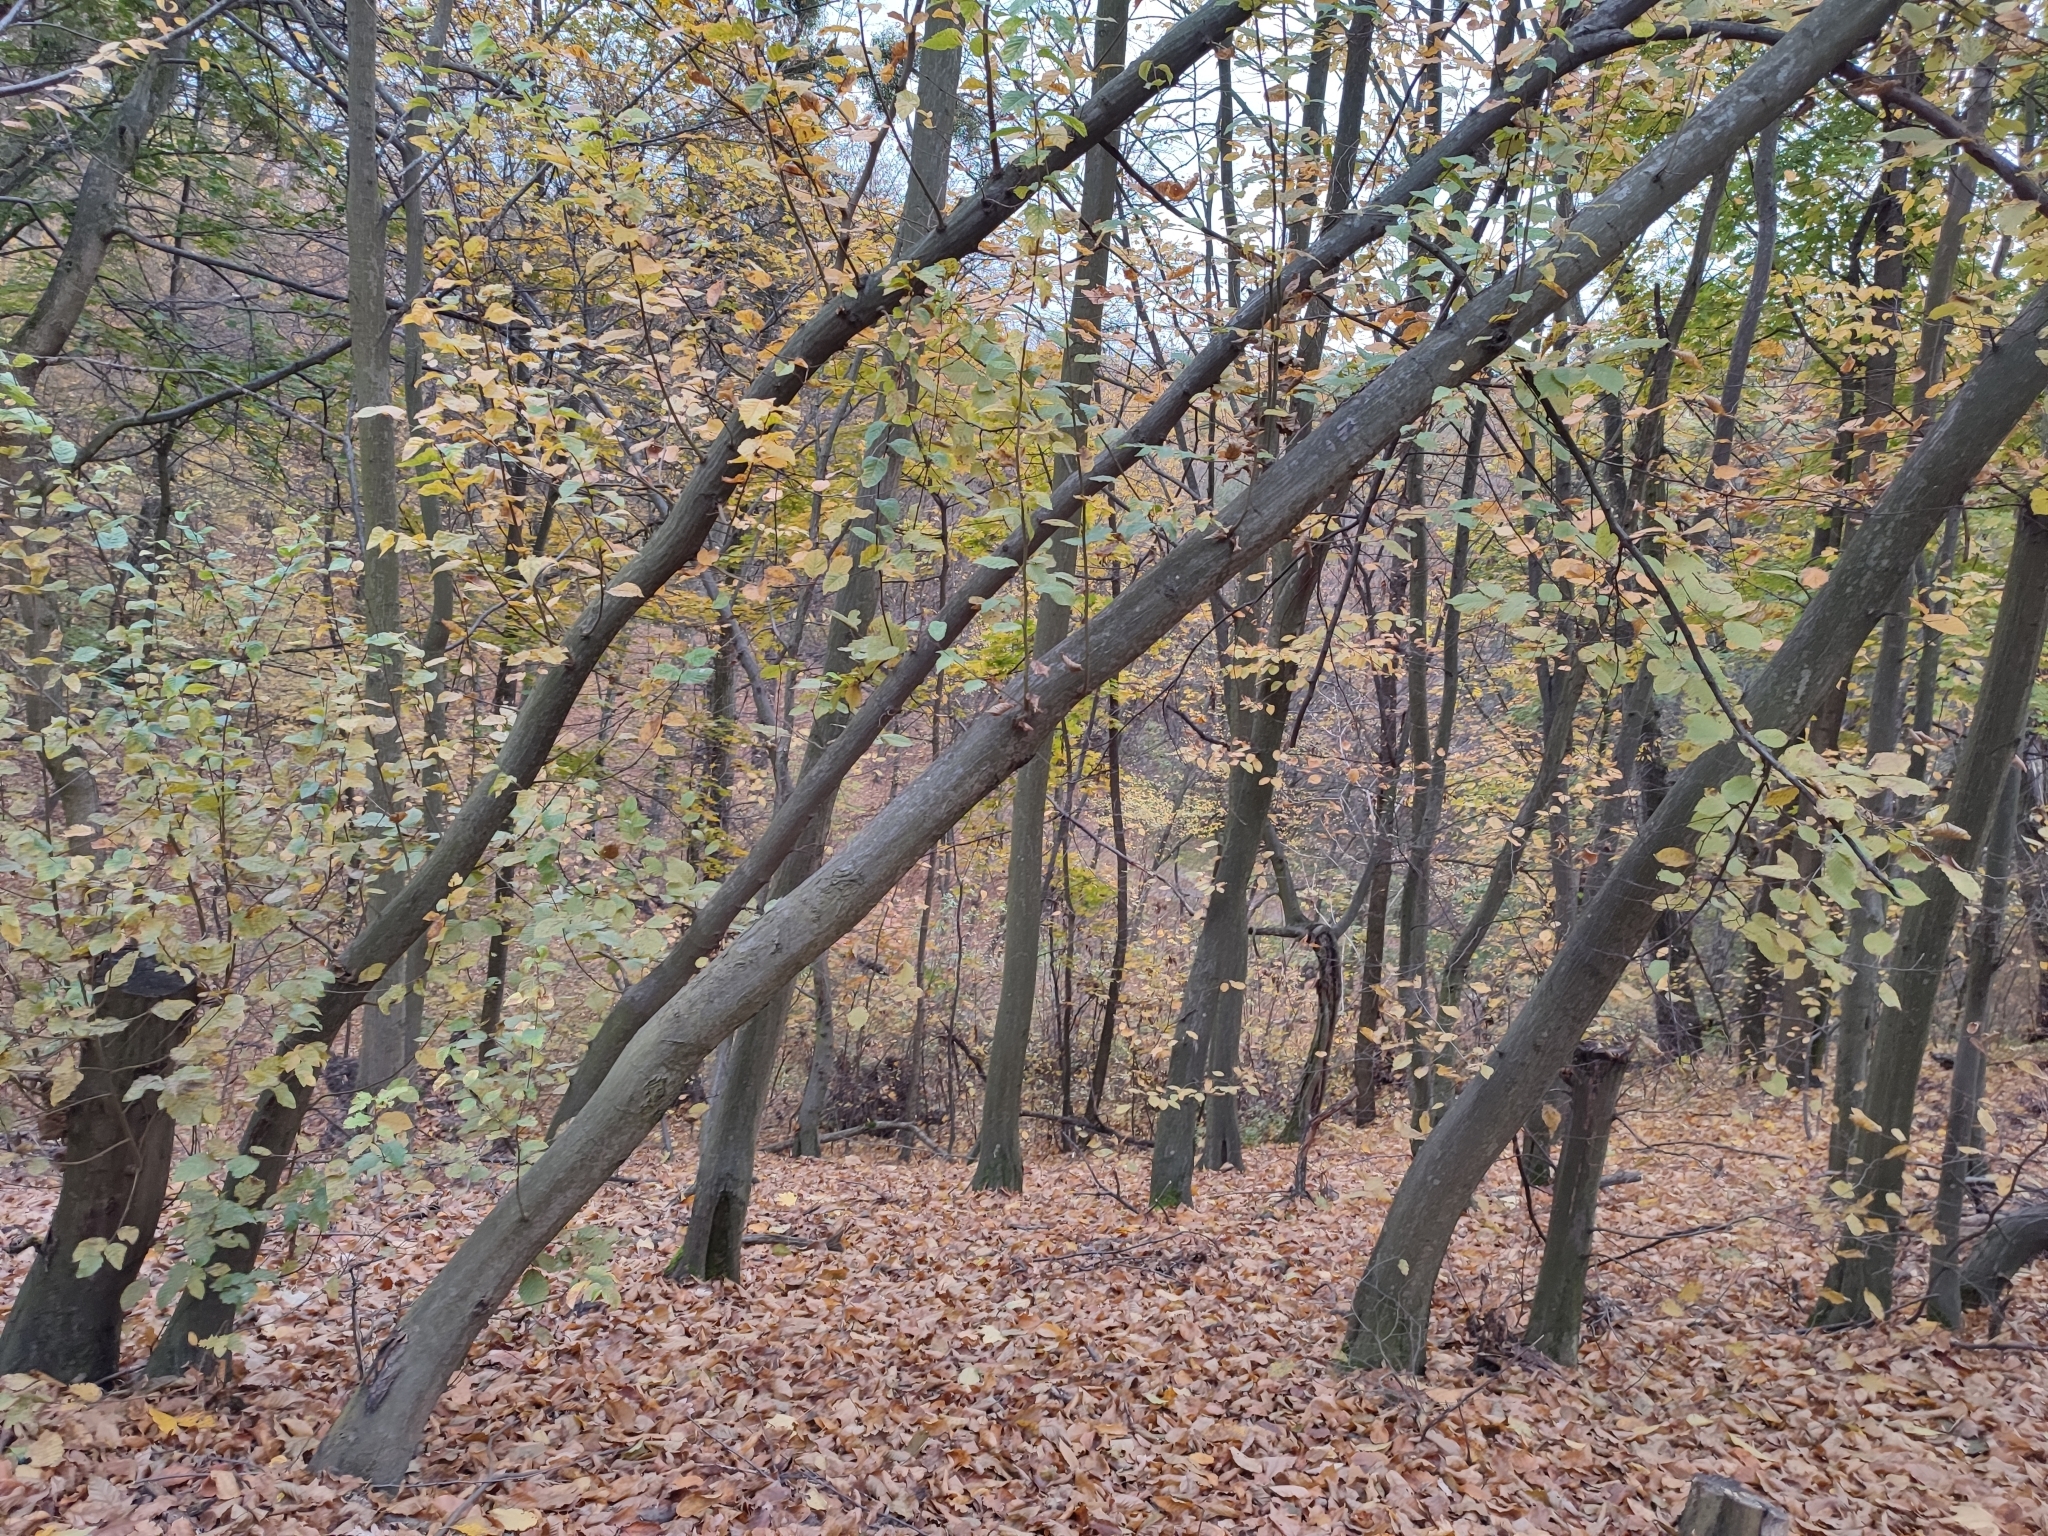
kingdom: Plantae
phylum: Tracheophyta
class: Magnoliopsida
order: Fagales
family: Betulaceae
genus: Carpinus
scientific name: Carpinus betulus
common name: Hornbeam
